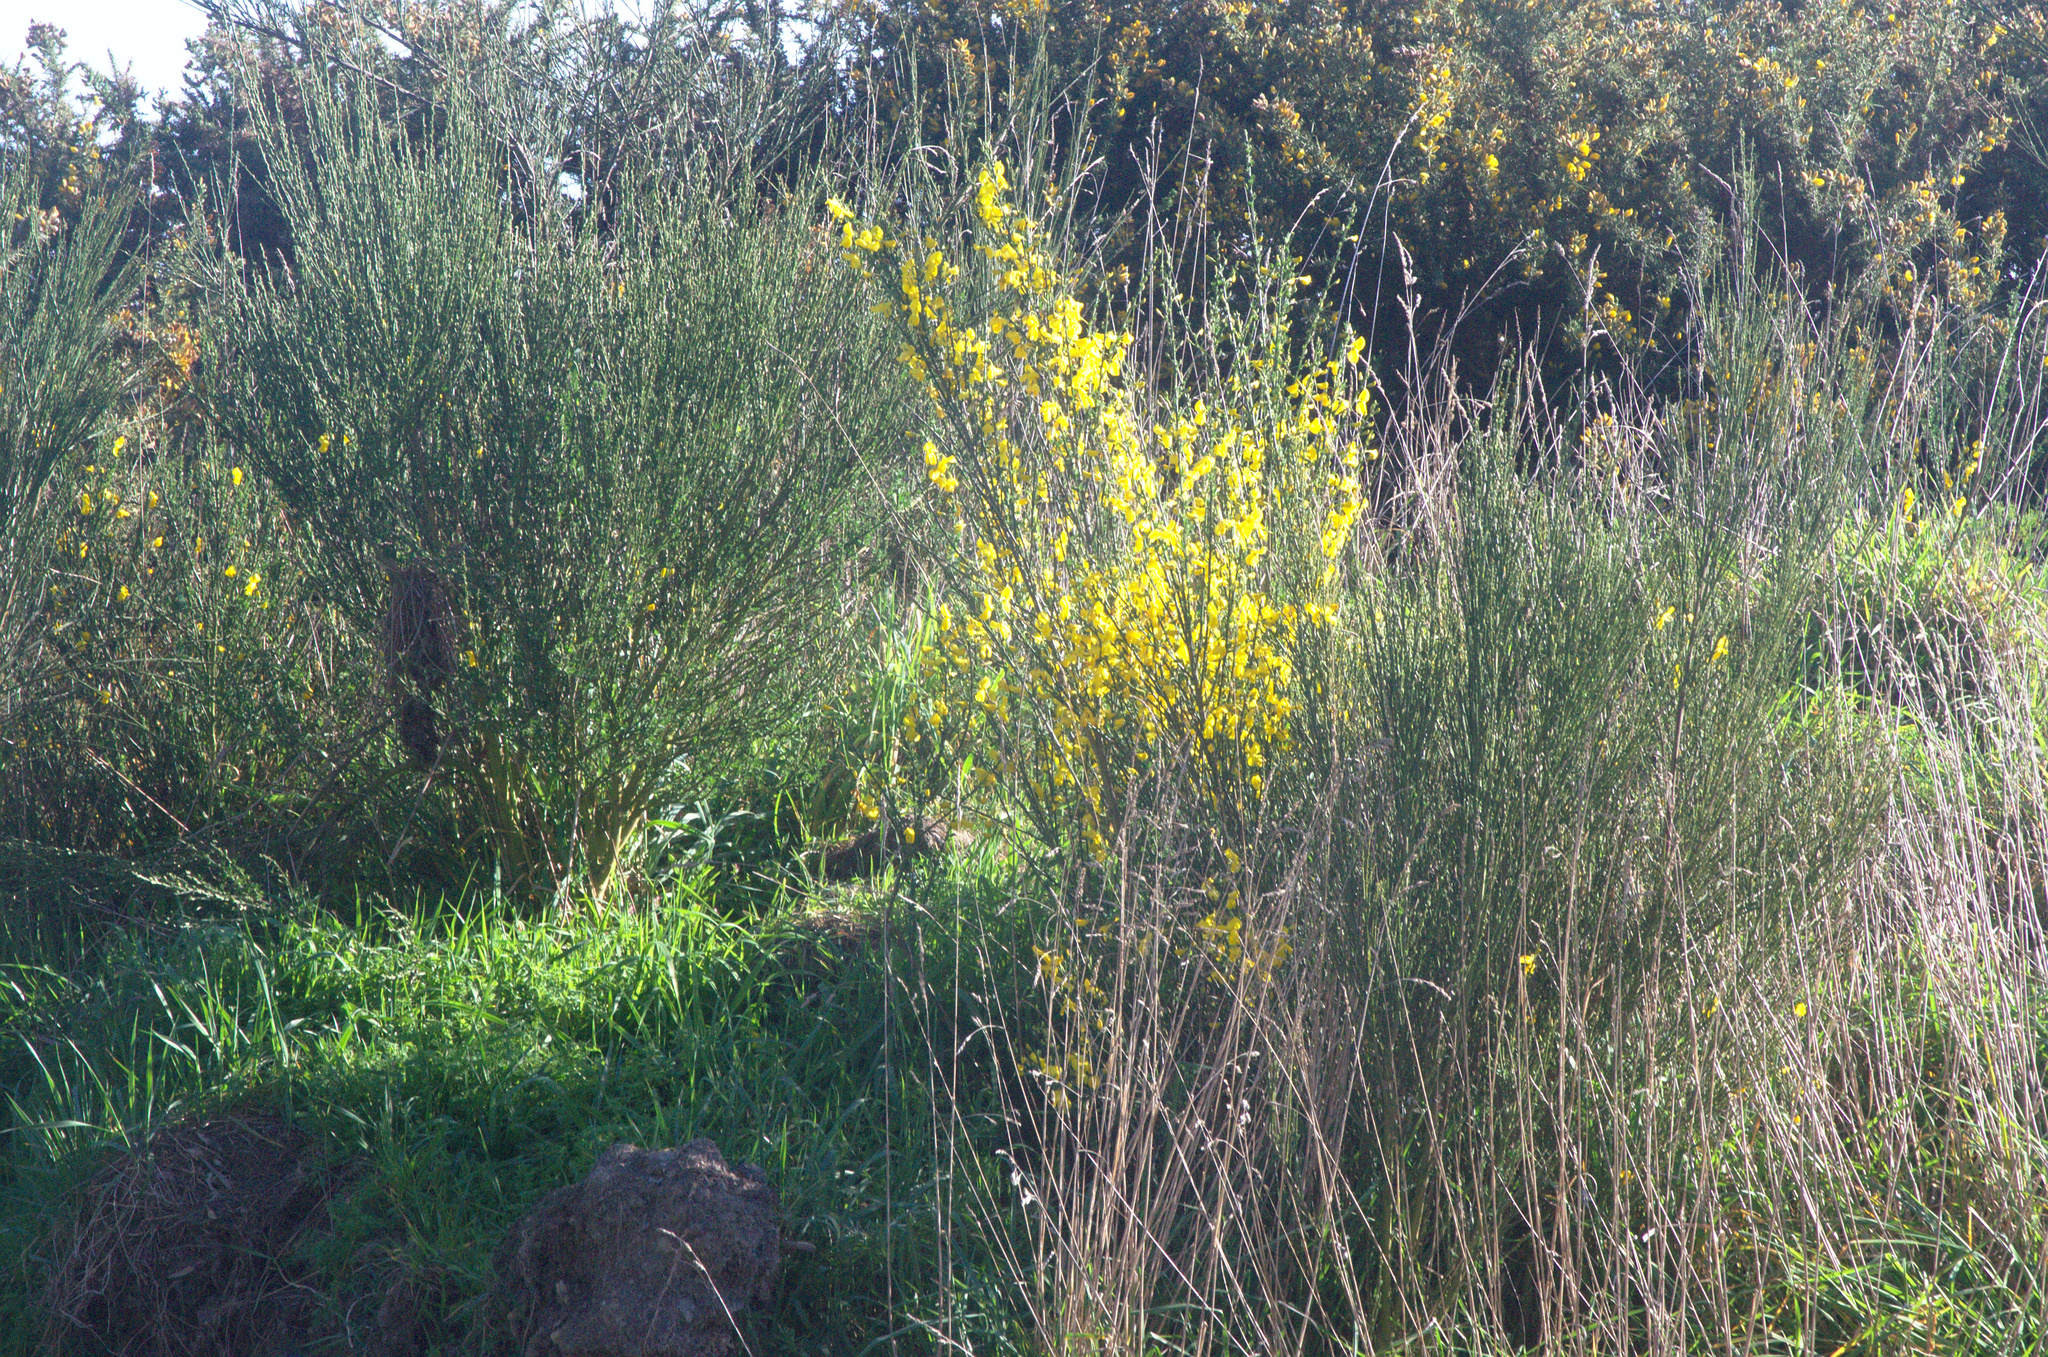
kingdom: Plantae
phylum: Tracheophyta
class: Magnoliopsida
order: Fabales
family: Fabaceae
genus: Cytisus
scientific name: Cytisus scoparius
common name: Scotch broom
